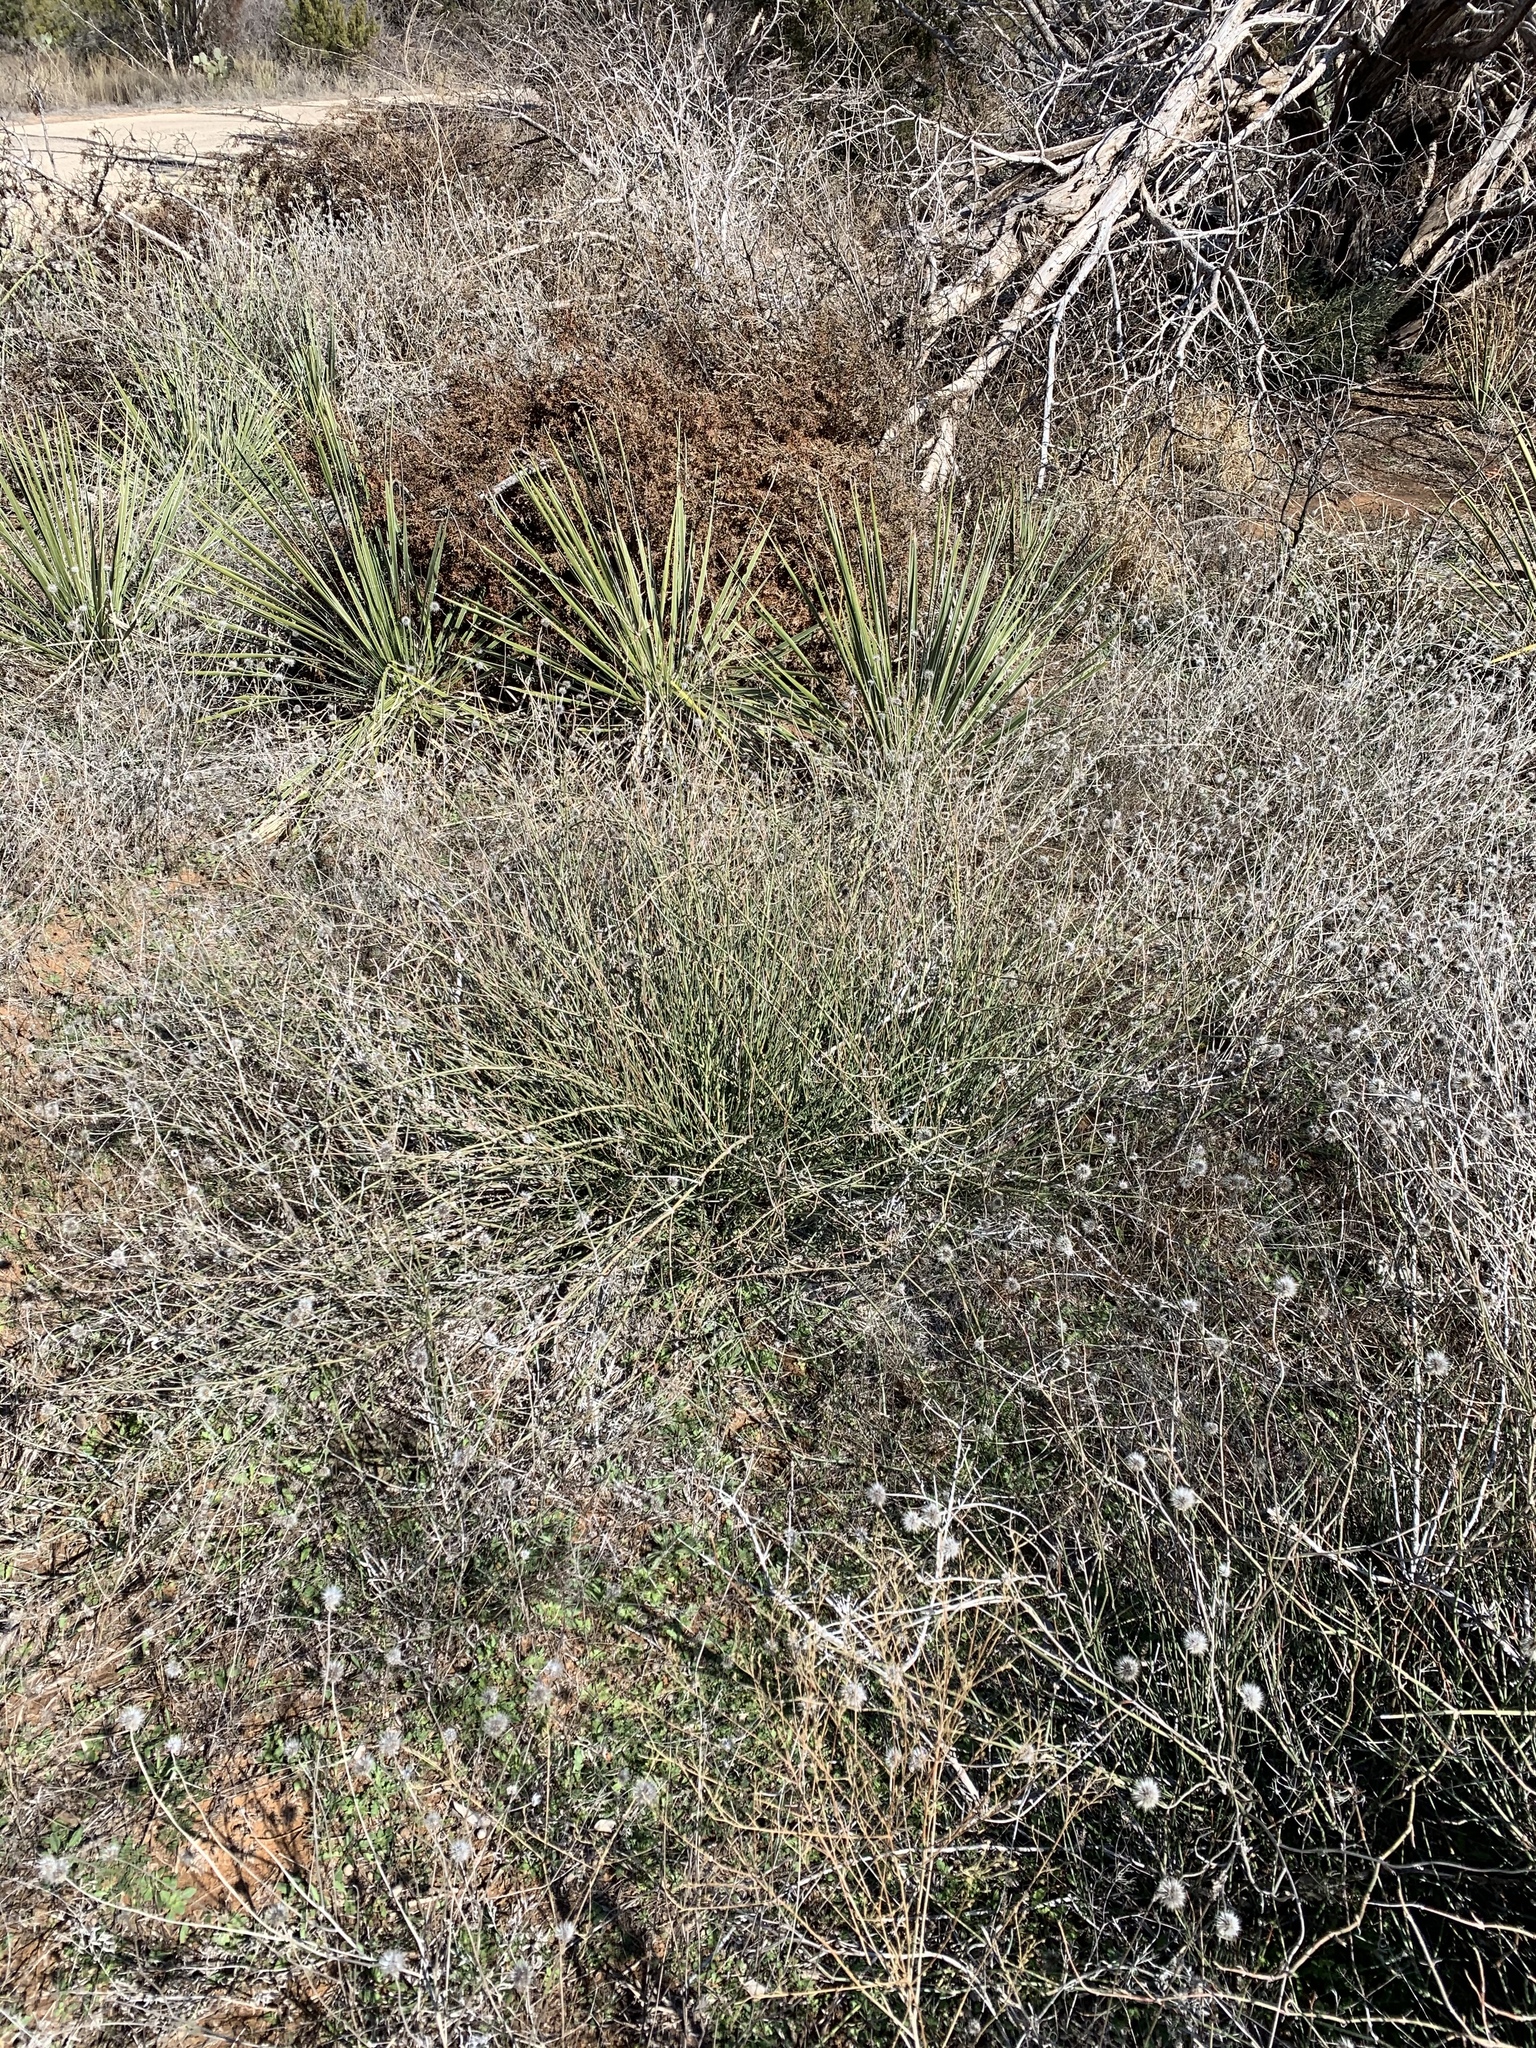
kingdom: Plantae
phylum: Tracheophyta
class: Gnetopsida
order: Ephedrales
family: Ephedraceae
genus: Ephedra
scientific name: Ephedra antisyphilitica
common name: Clipweed
